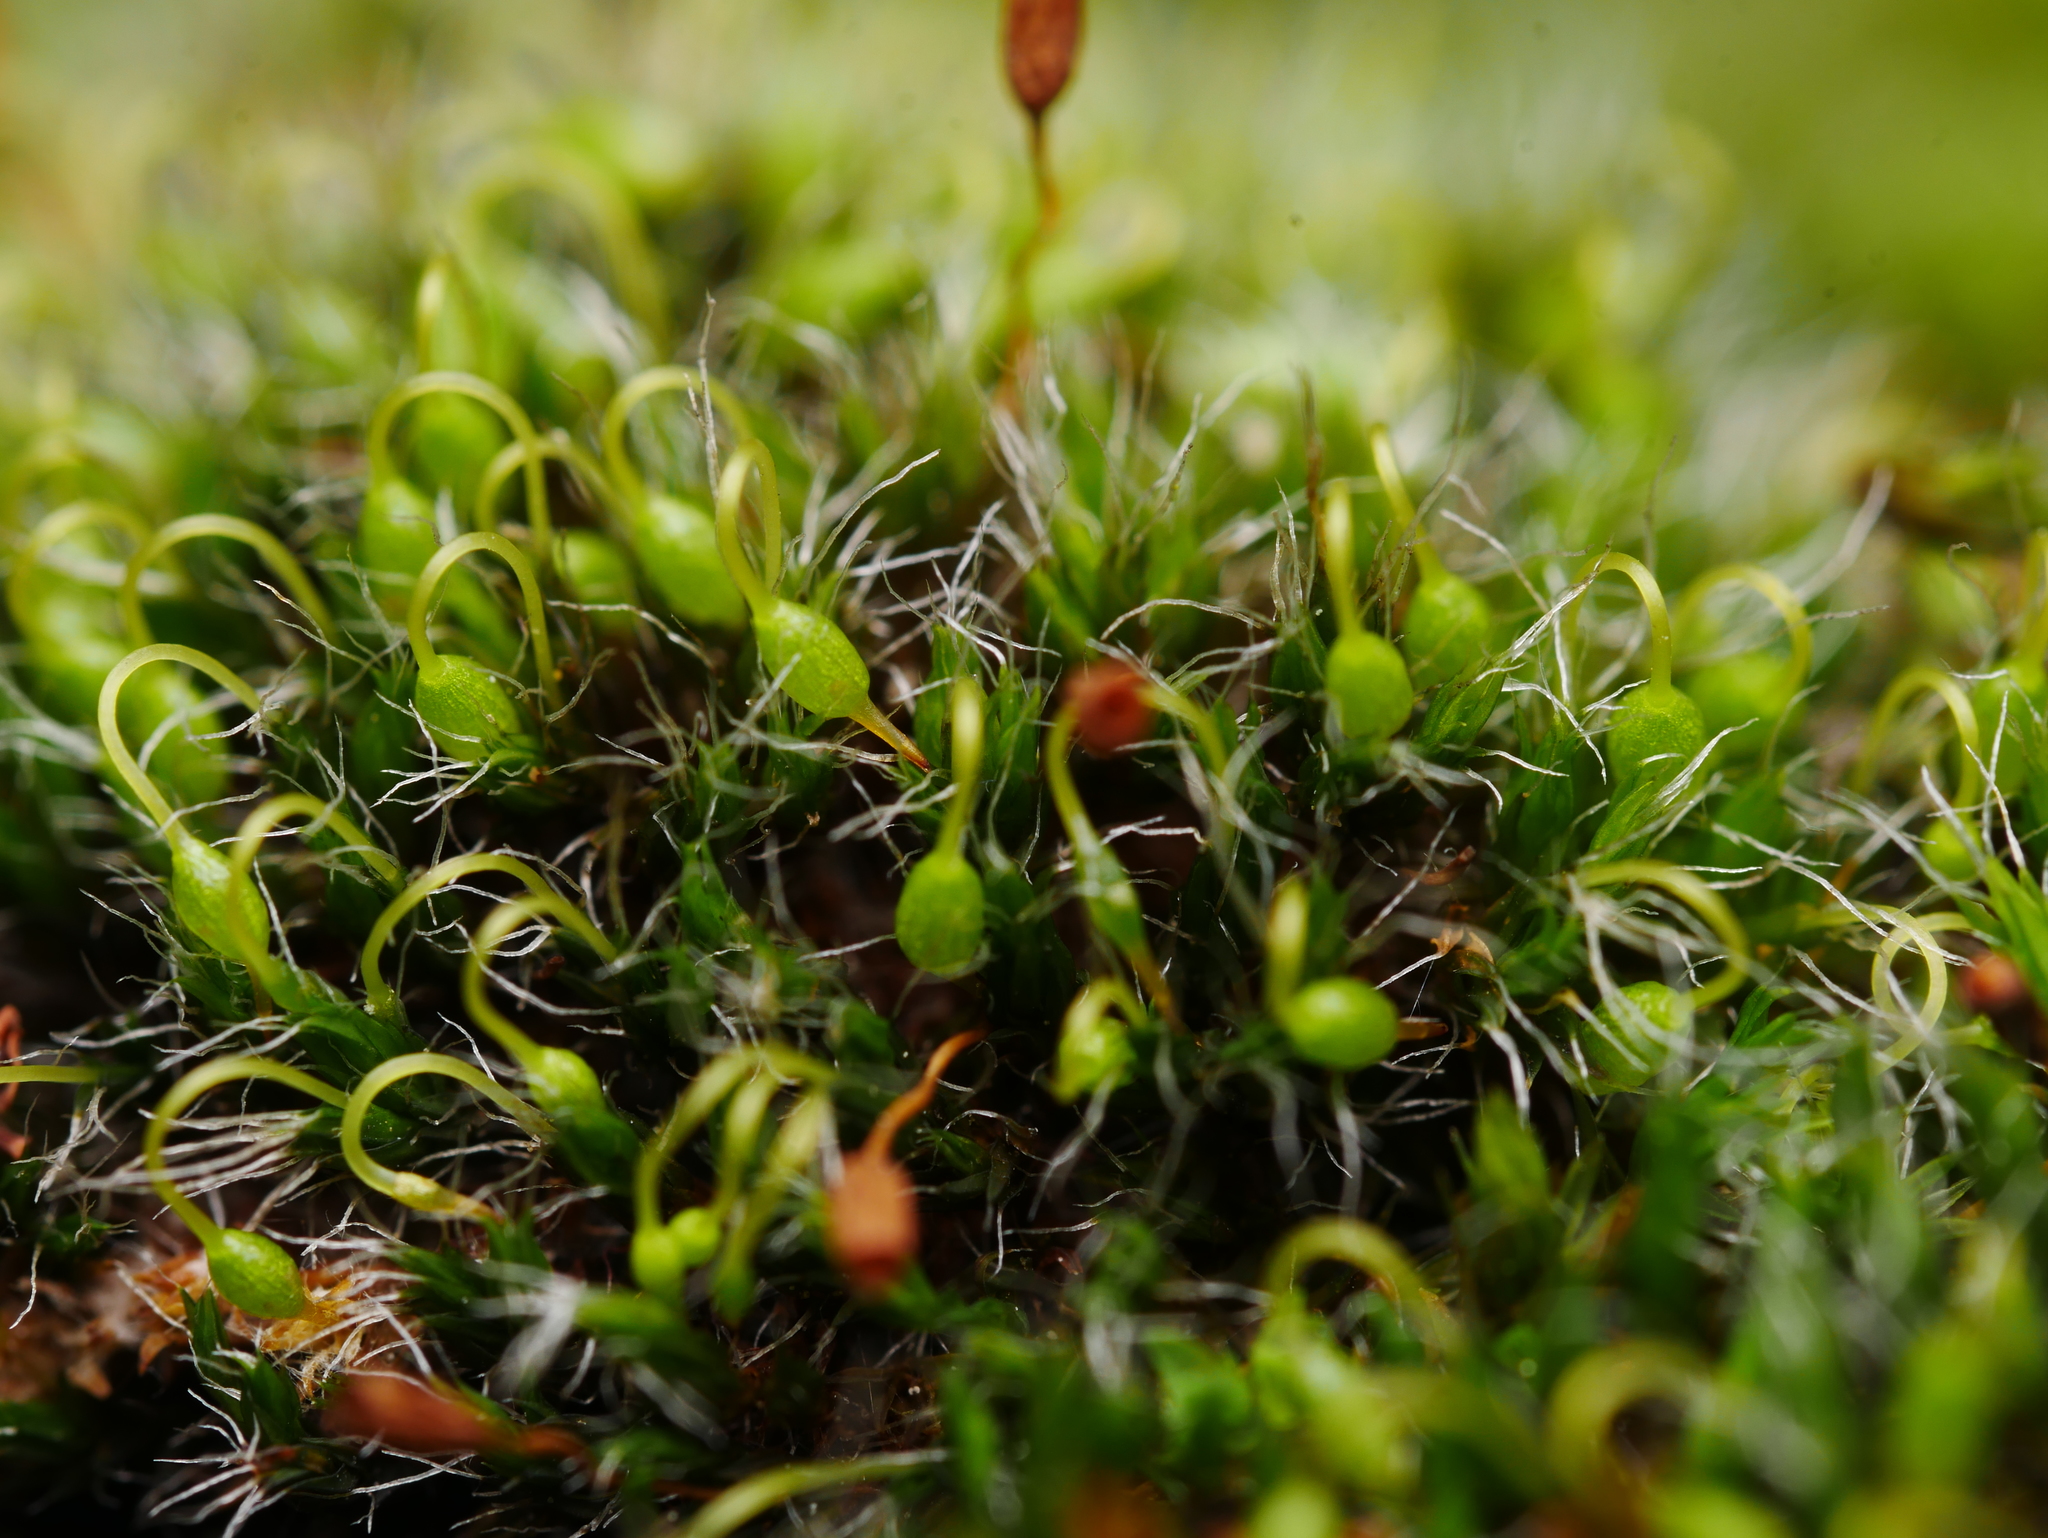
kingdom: Plantae
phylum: Bryophyta
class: Bryopsida
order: Grimmiales
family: Grimmiaceae
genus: Grimmia
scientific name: Grimmia pulvinata
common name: Grey-cushioned grimmia
